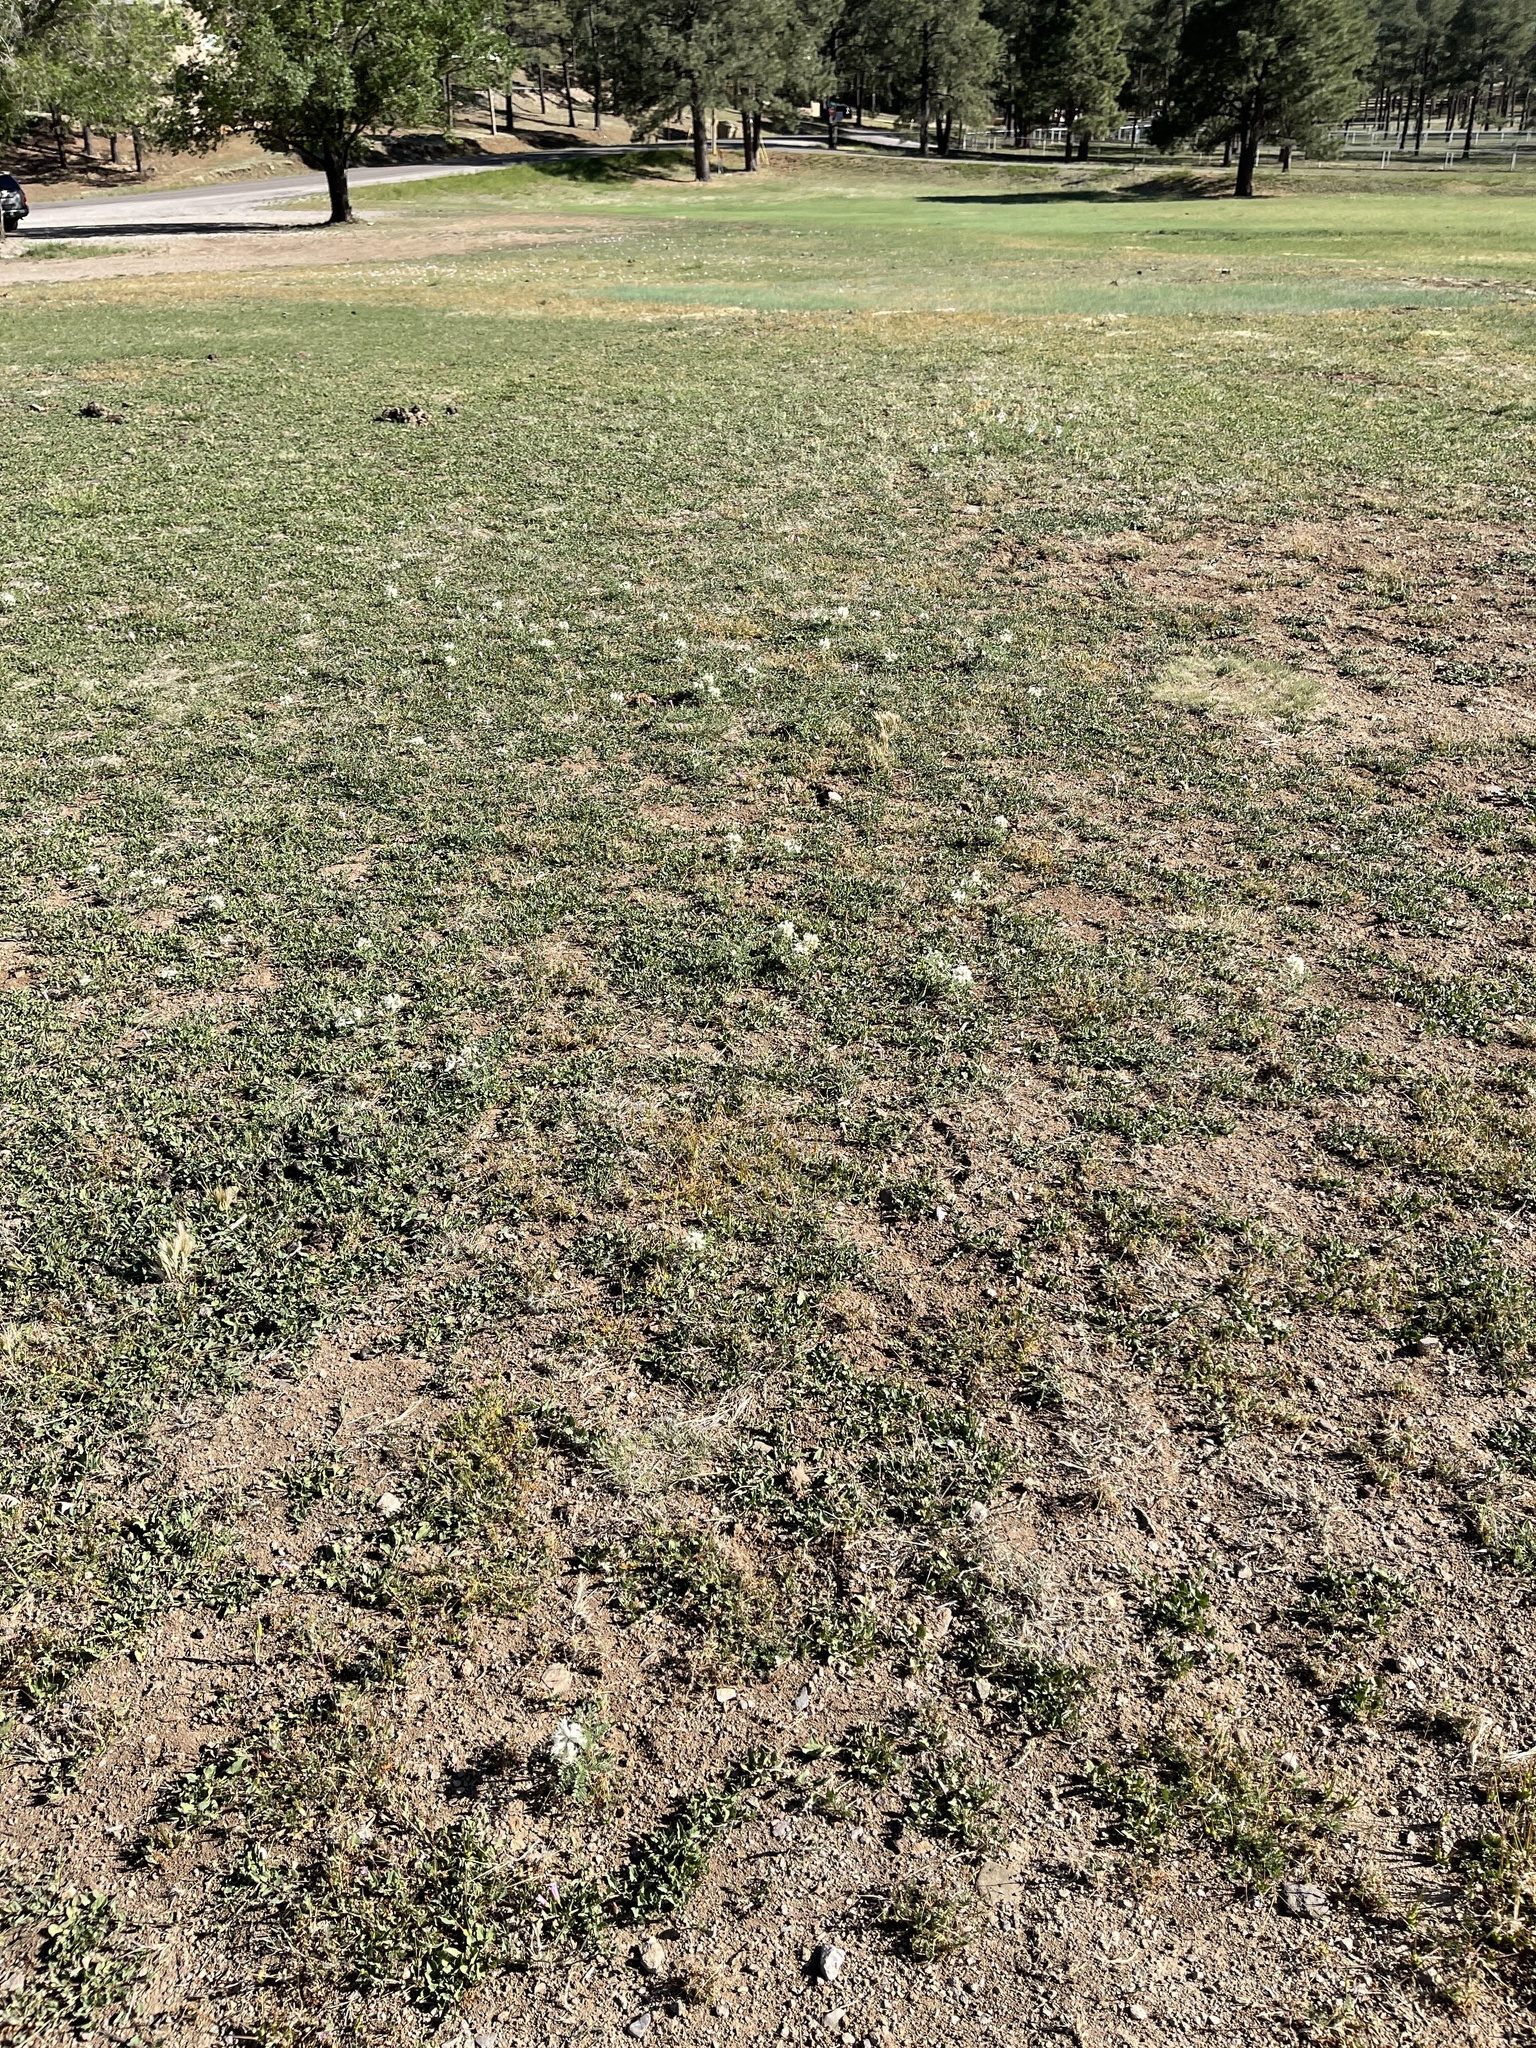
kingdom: Plantae
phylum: Tracheophyta
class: Magnoliopsida
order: Fabales
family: Fabaceae
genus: Sophora
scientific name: Sophora nuttalliana
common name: Silky sophora
